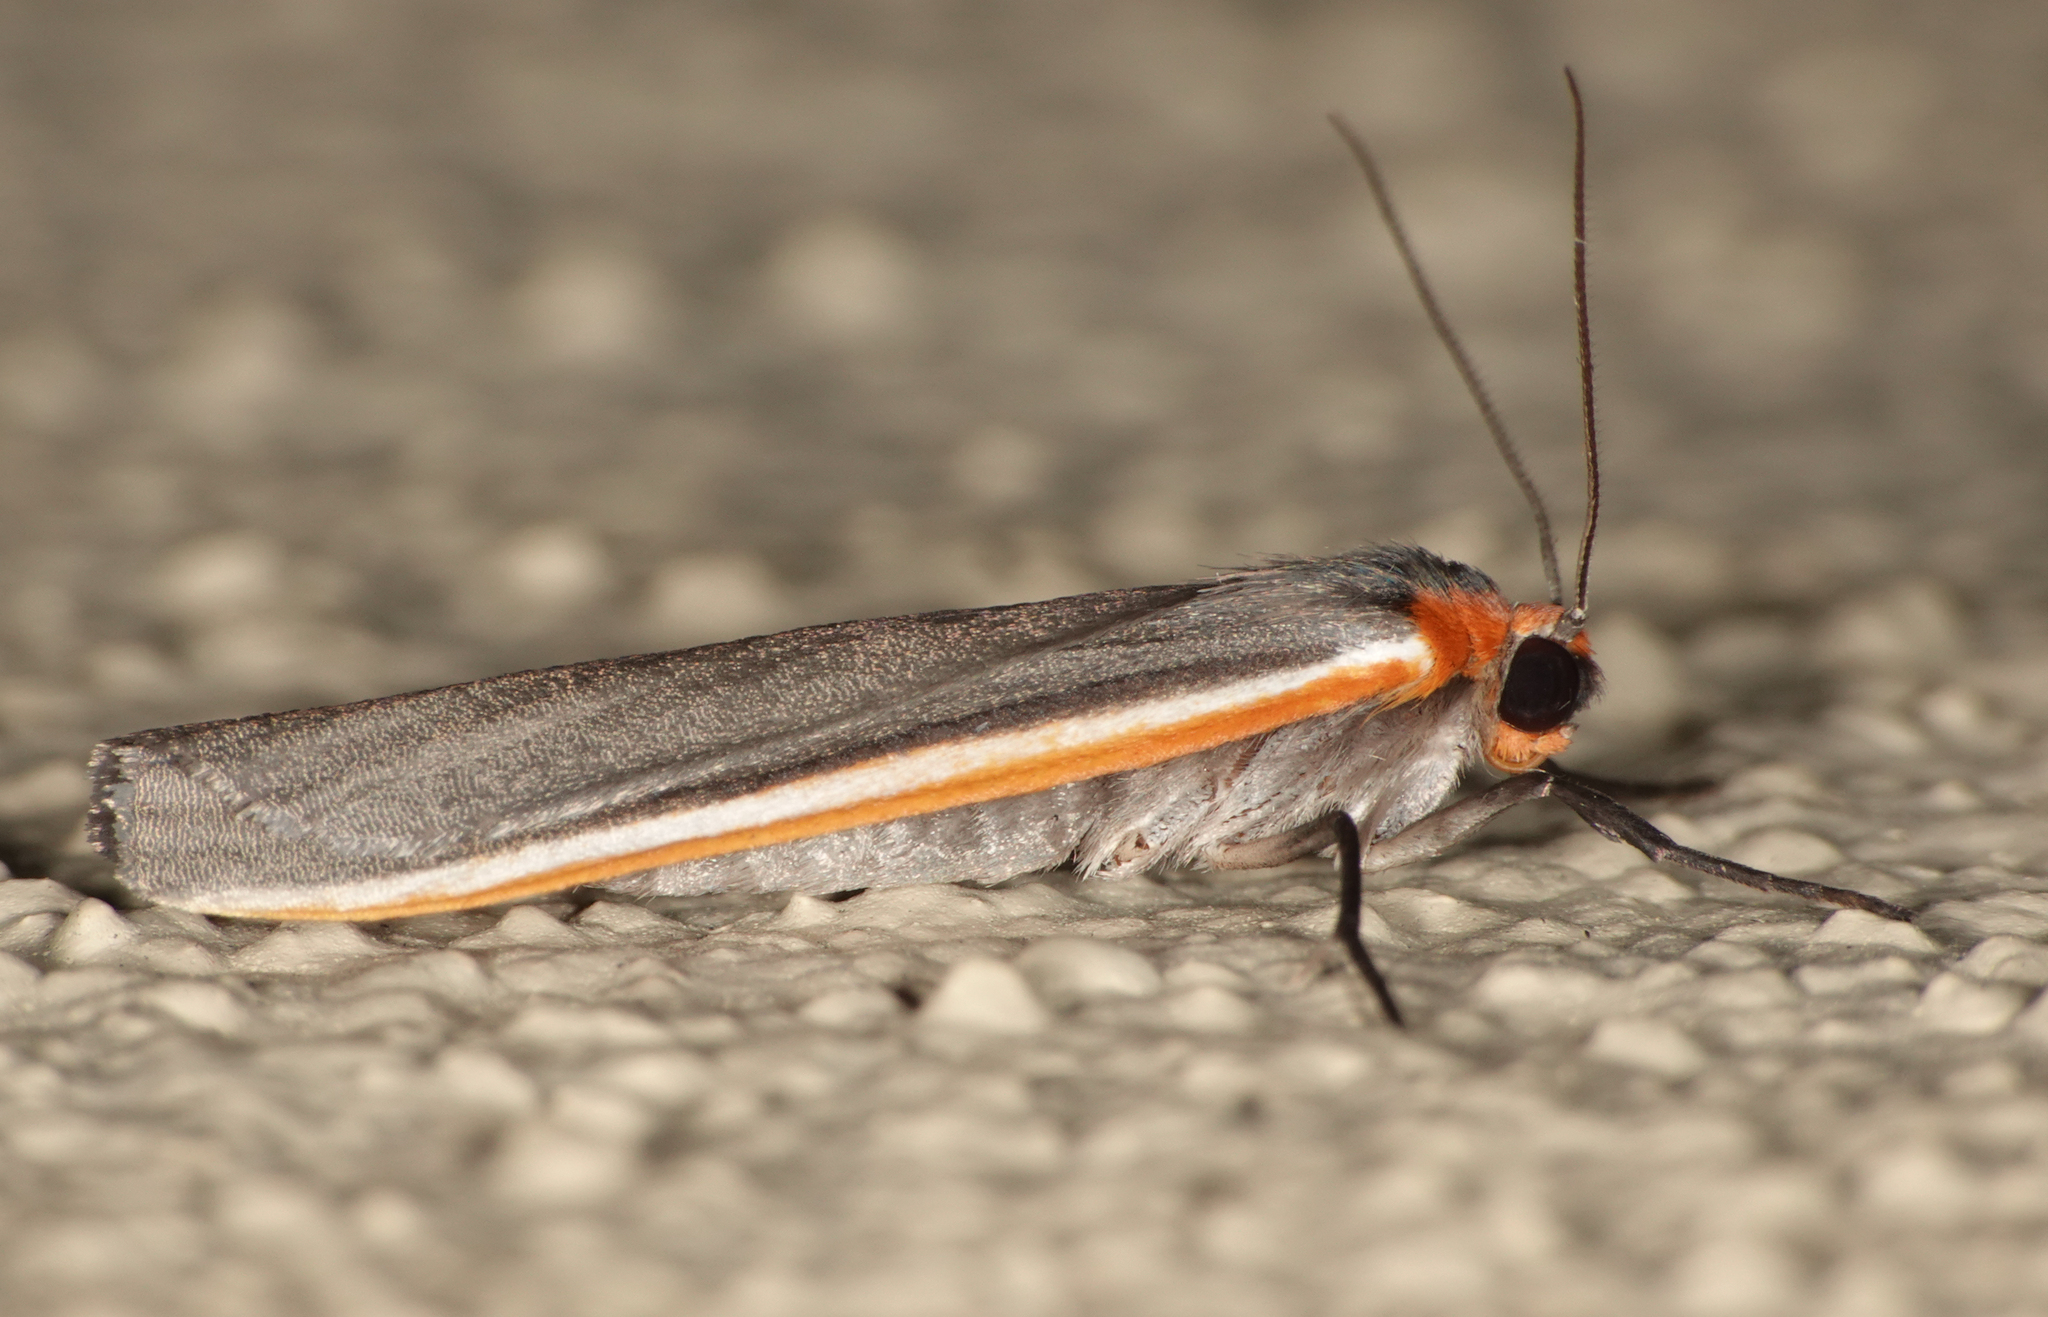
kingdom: Animalia
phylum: Arthropoda
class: Insecta
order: Lepidoptera
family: Erebidae
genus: Palaeosia
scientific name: Palaeosia bicosta
